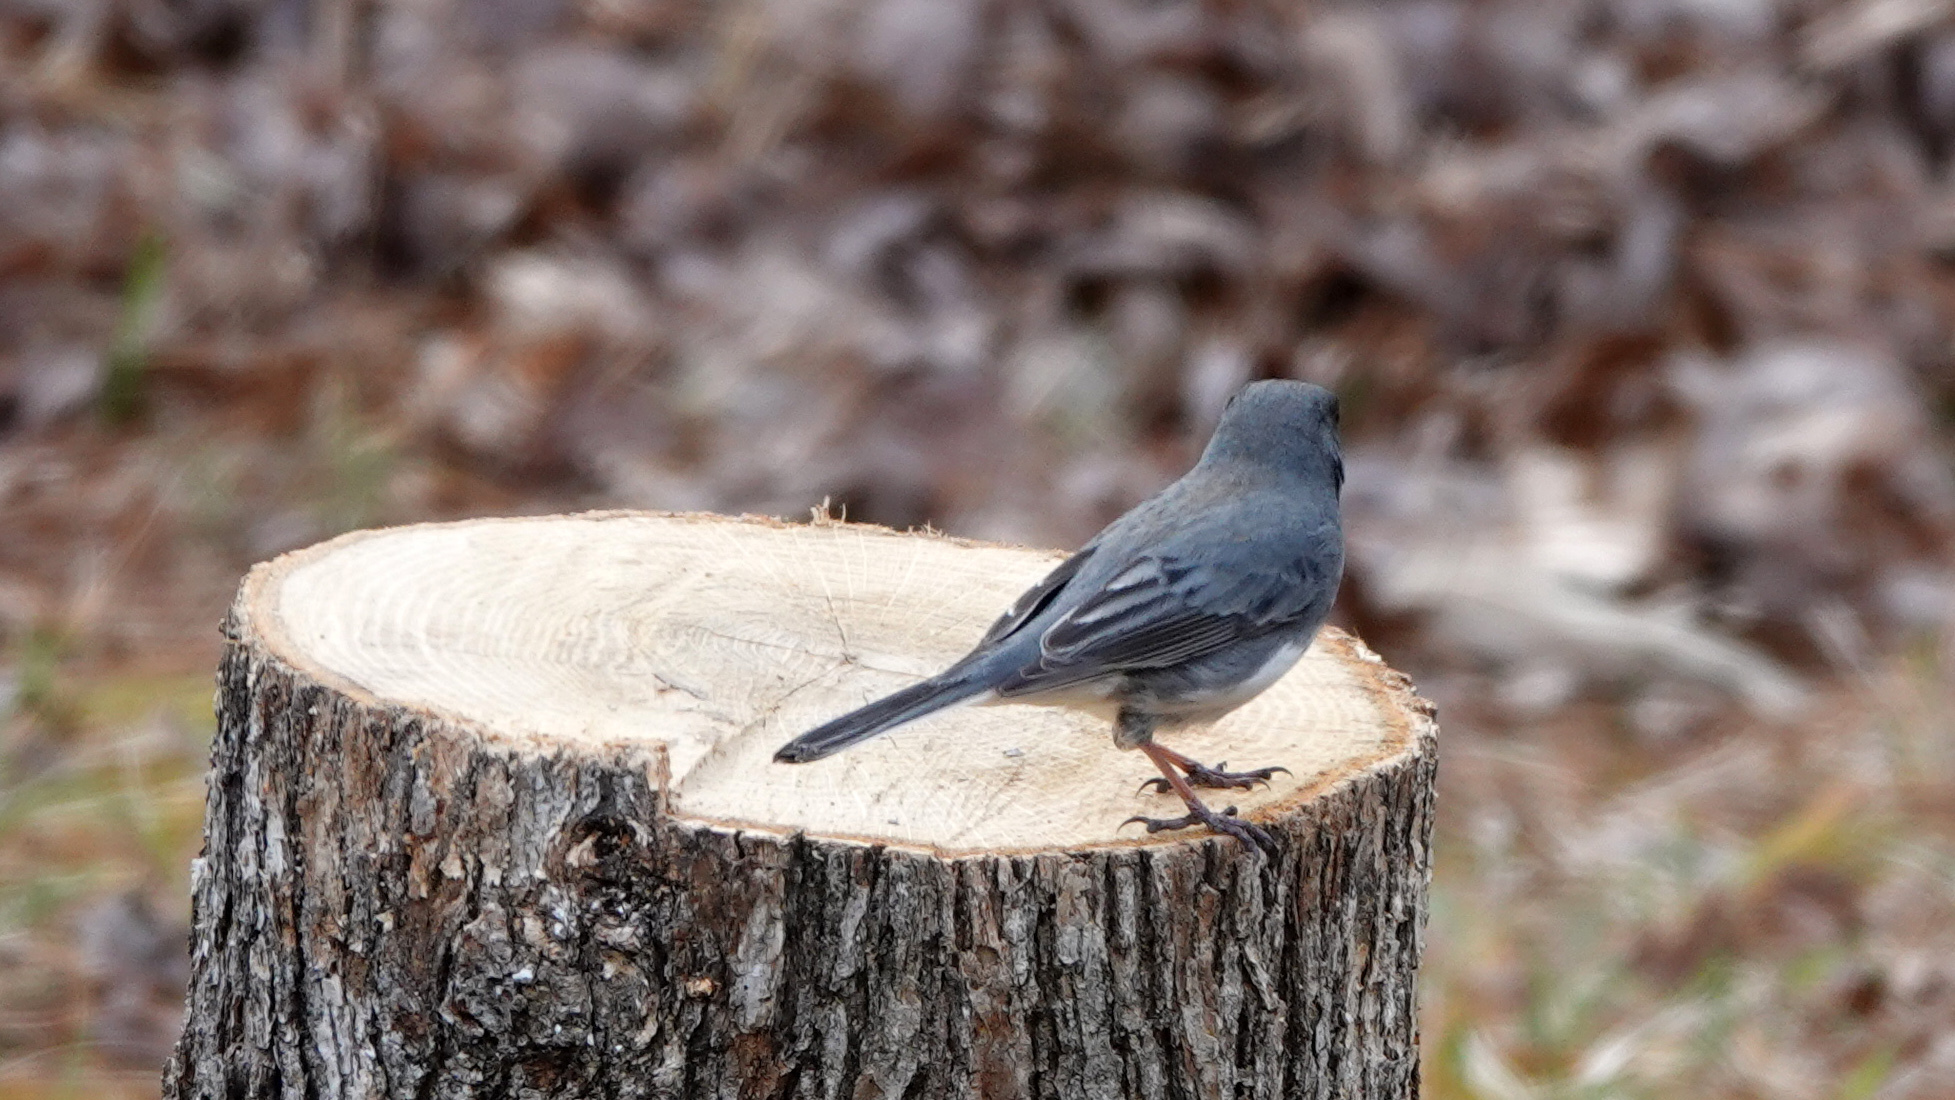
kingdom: Animalia
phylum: Chordata
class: Aves
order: Passeriformes
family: Passerellidae
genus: Junco
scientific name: Junco hyemalis
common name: Dark-eyed junco
